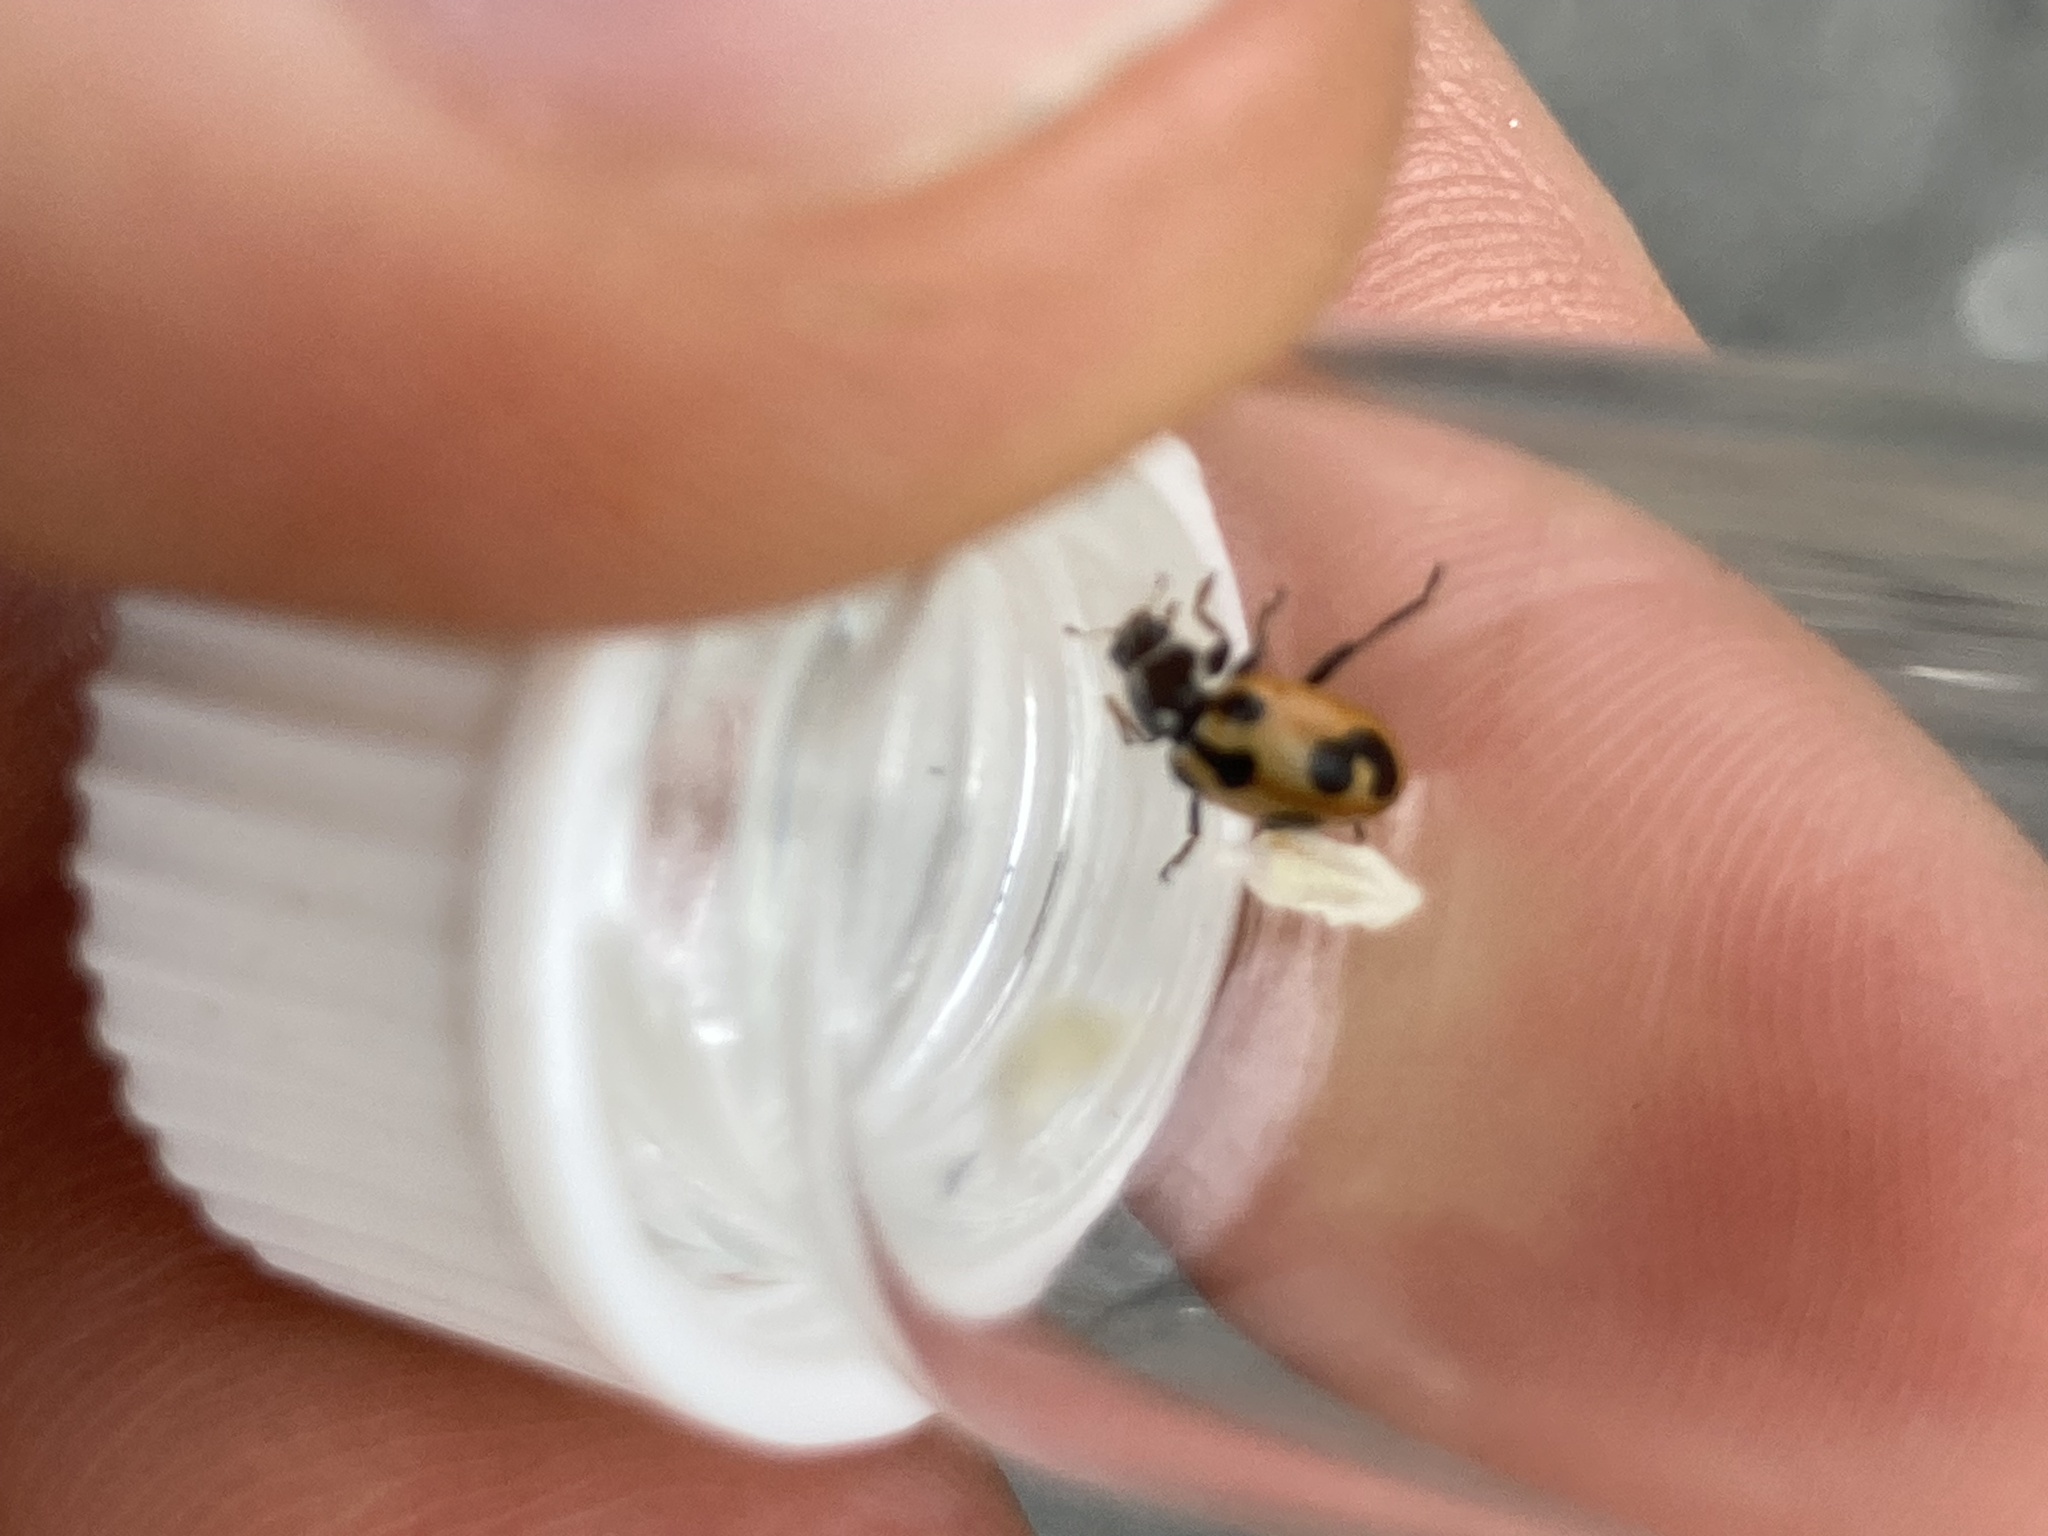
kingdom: Animalia
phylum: Arthropoda
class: Insecta
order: Coleoptera
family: Coccinellidae
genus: Hippodamia
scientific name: Hippodamia parenthesis
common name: Parenthesis lady beetle
